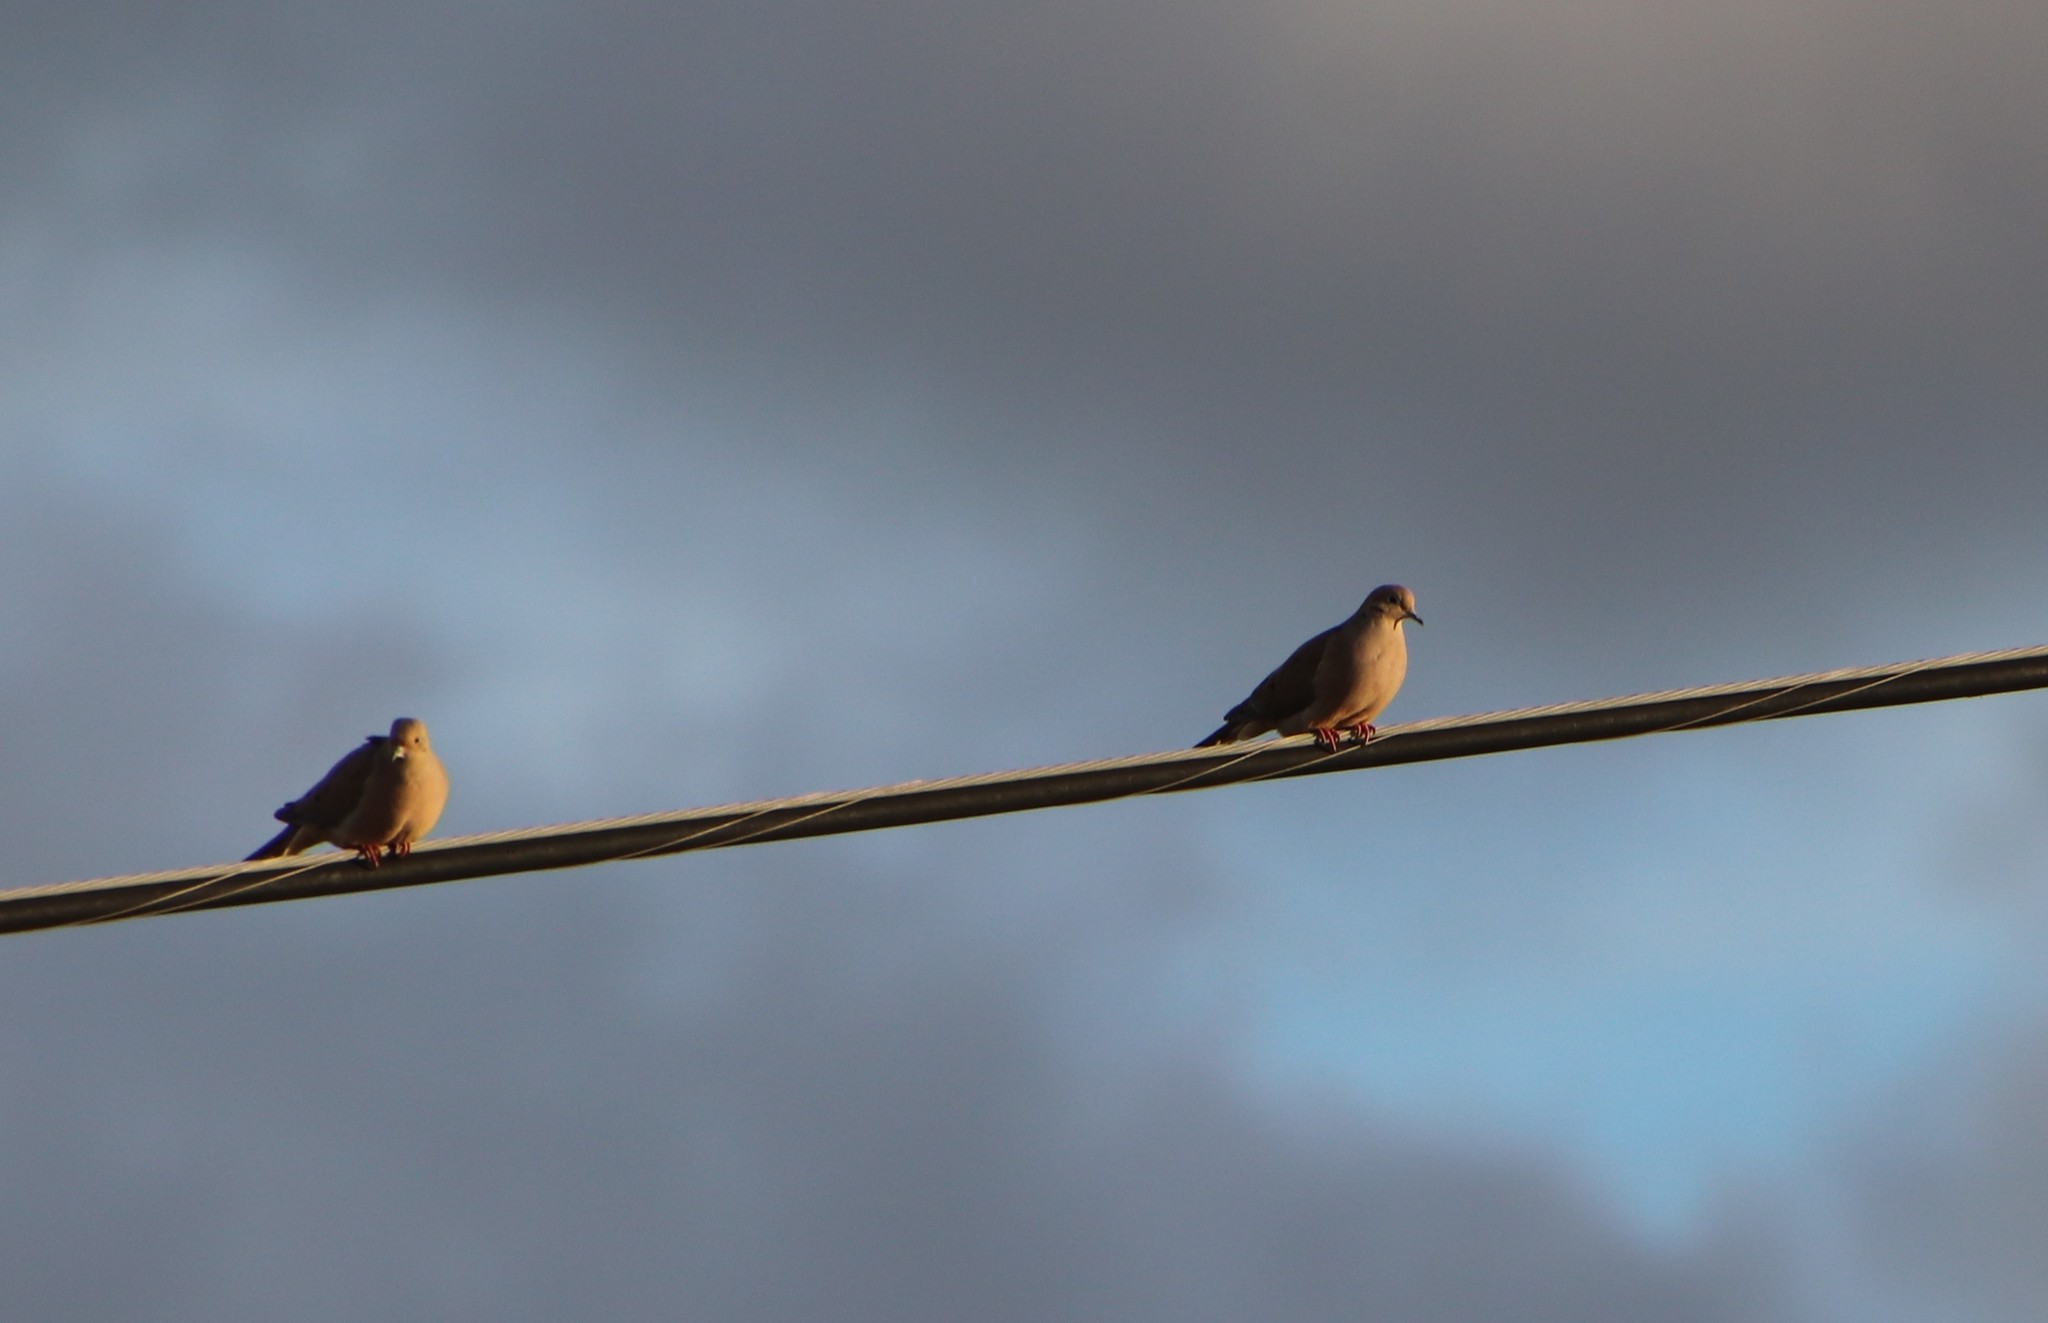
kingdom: Animalia
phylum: Chordata
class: Aves
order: Columbiformes
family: Columbidae
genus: Zenaida
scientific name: Zenaida macroura
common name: Mourning dove
